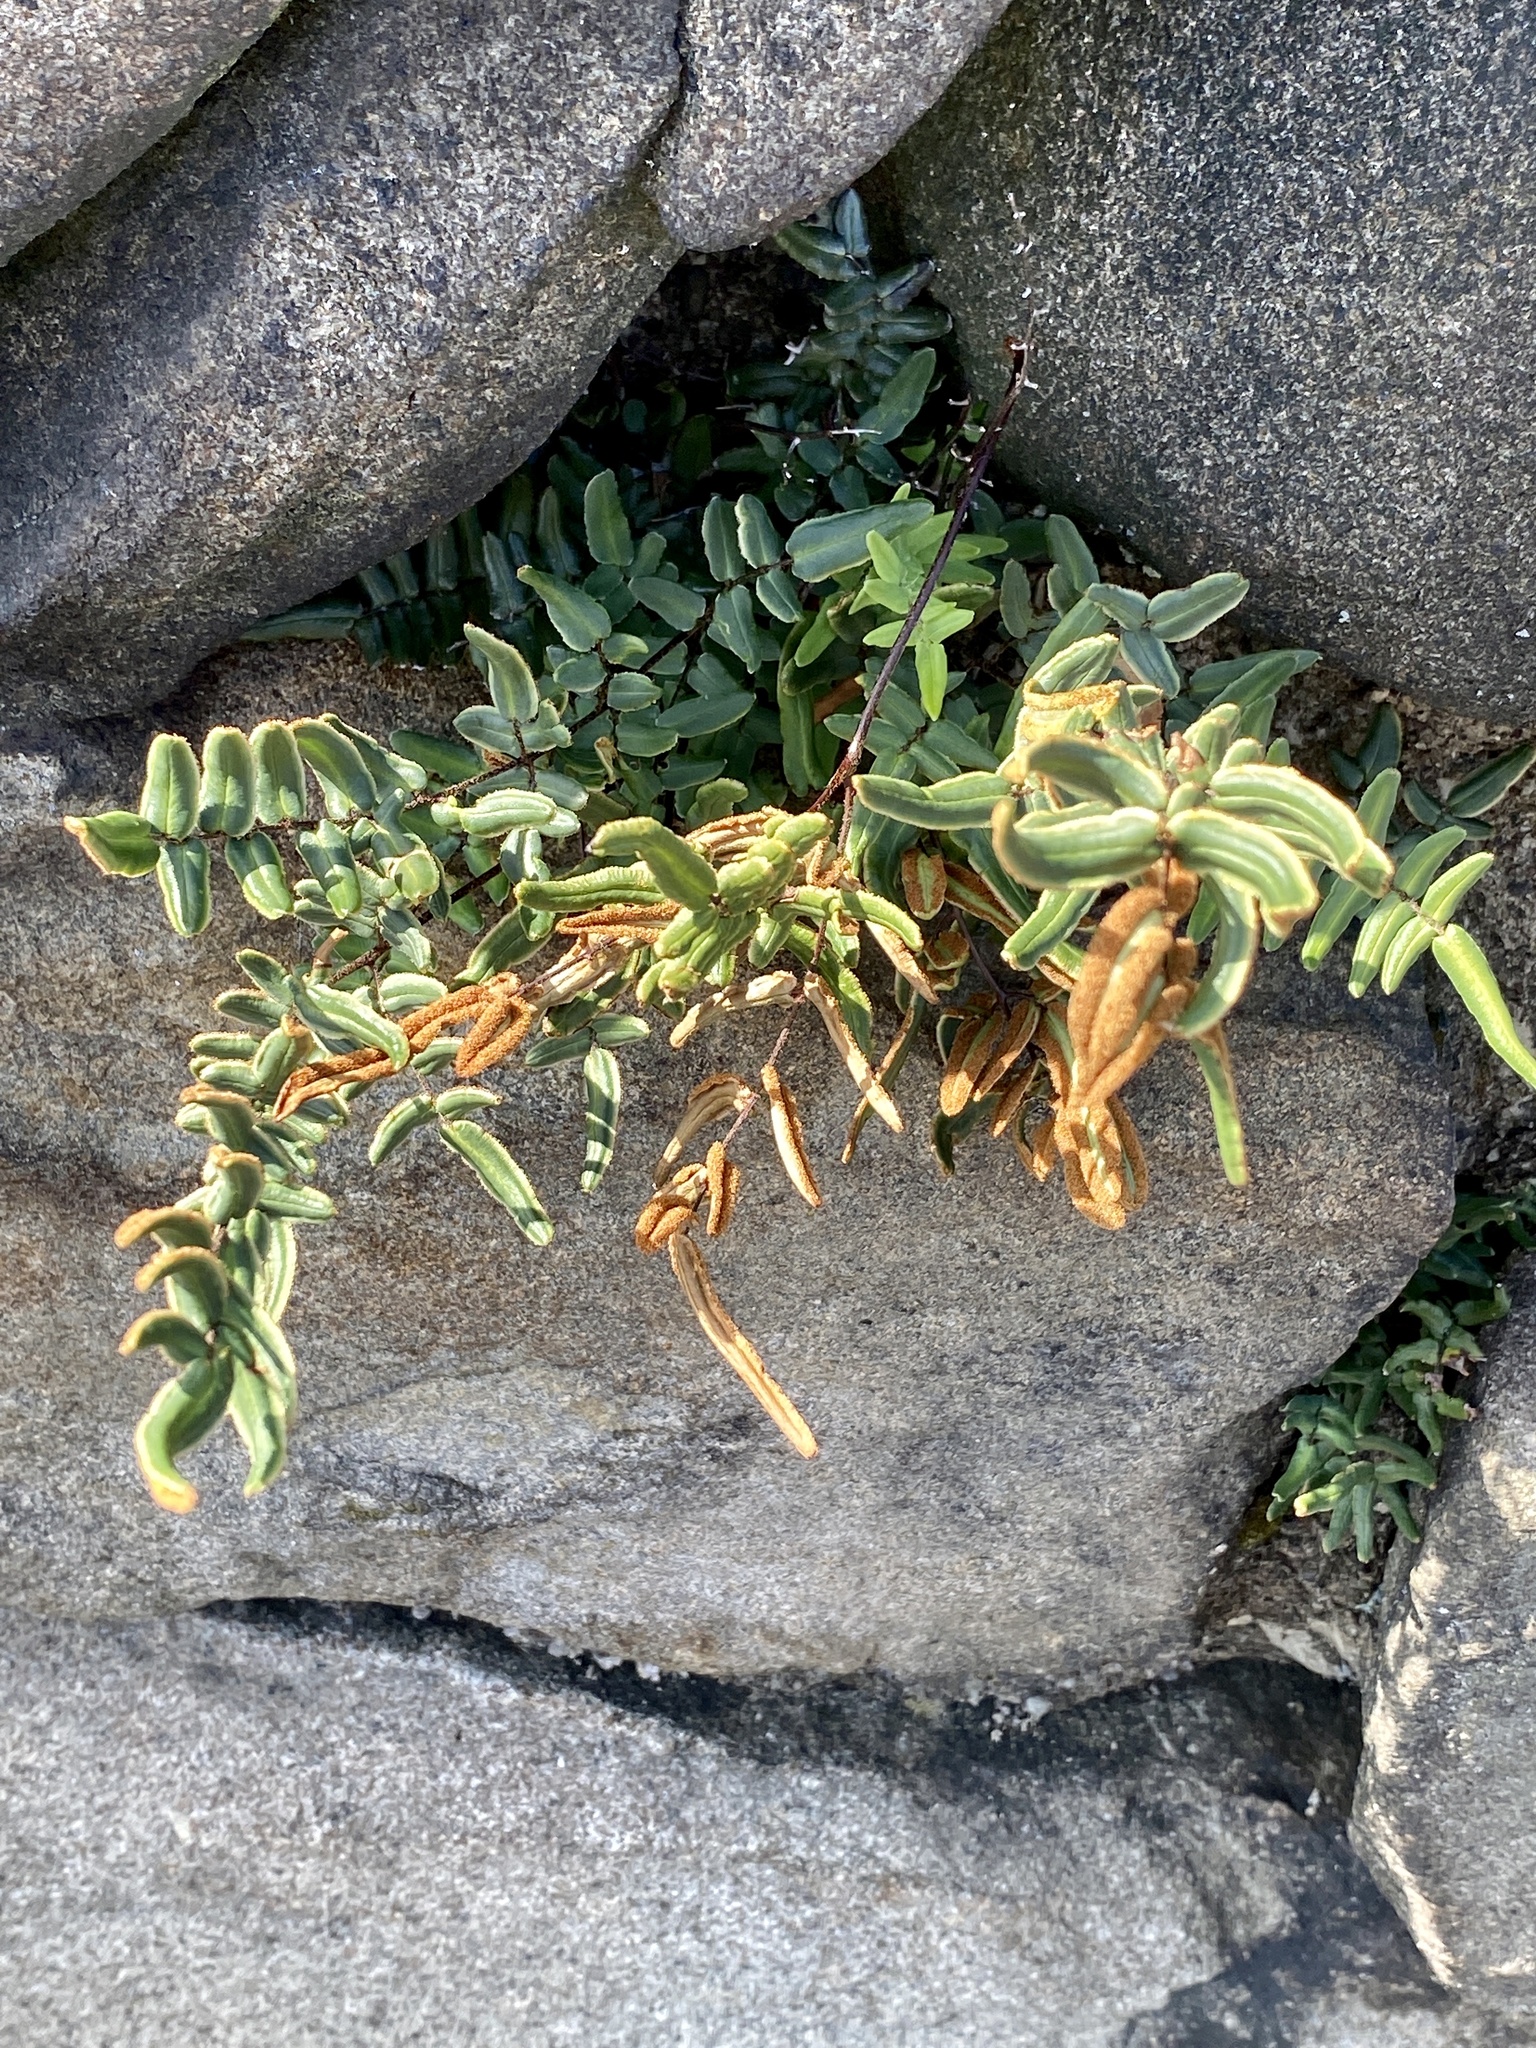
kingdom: Plantae
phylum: Tracheophyta
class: Polypodiopsida
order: Polypodiales
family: Pteridaceae
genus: Pellaea
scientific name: Pellaea atropurpurea
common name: Hairy cliffbrake
